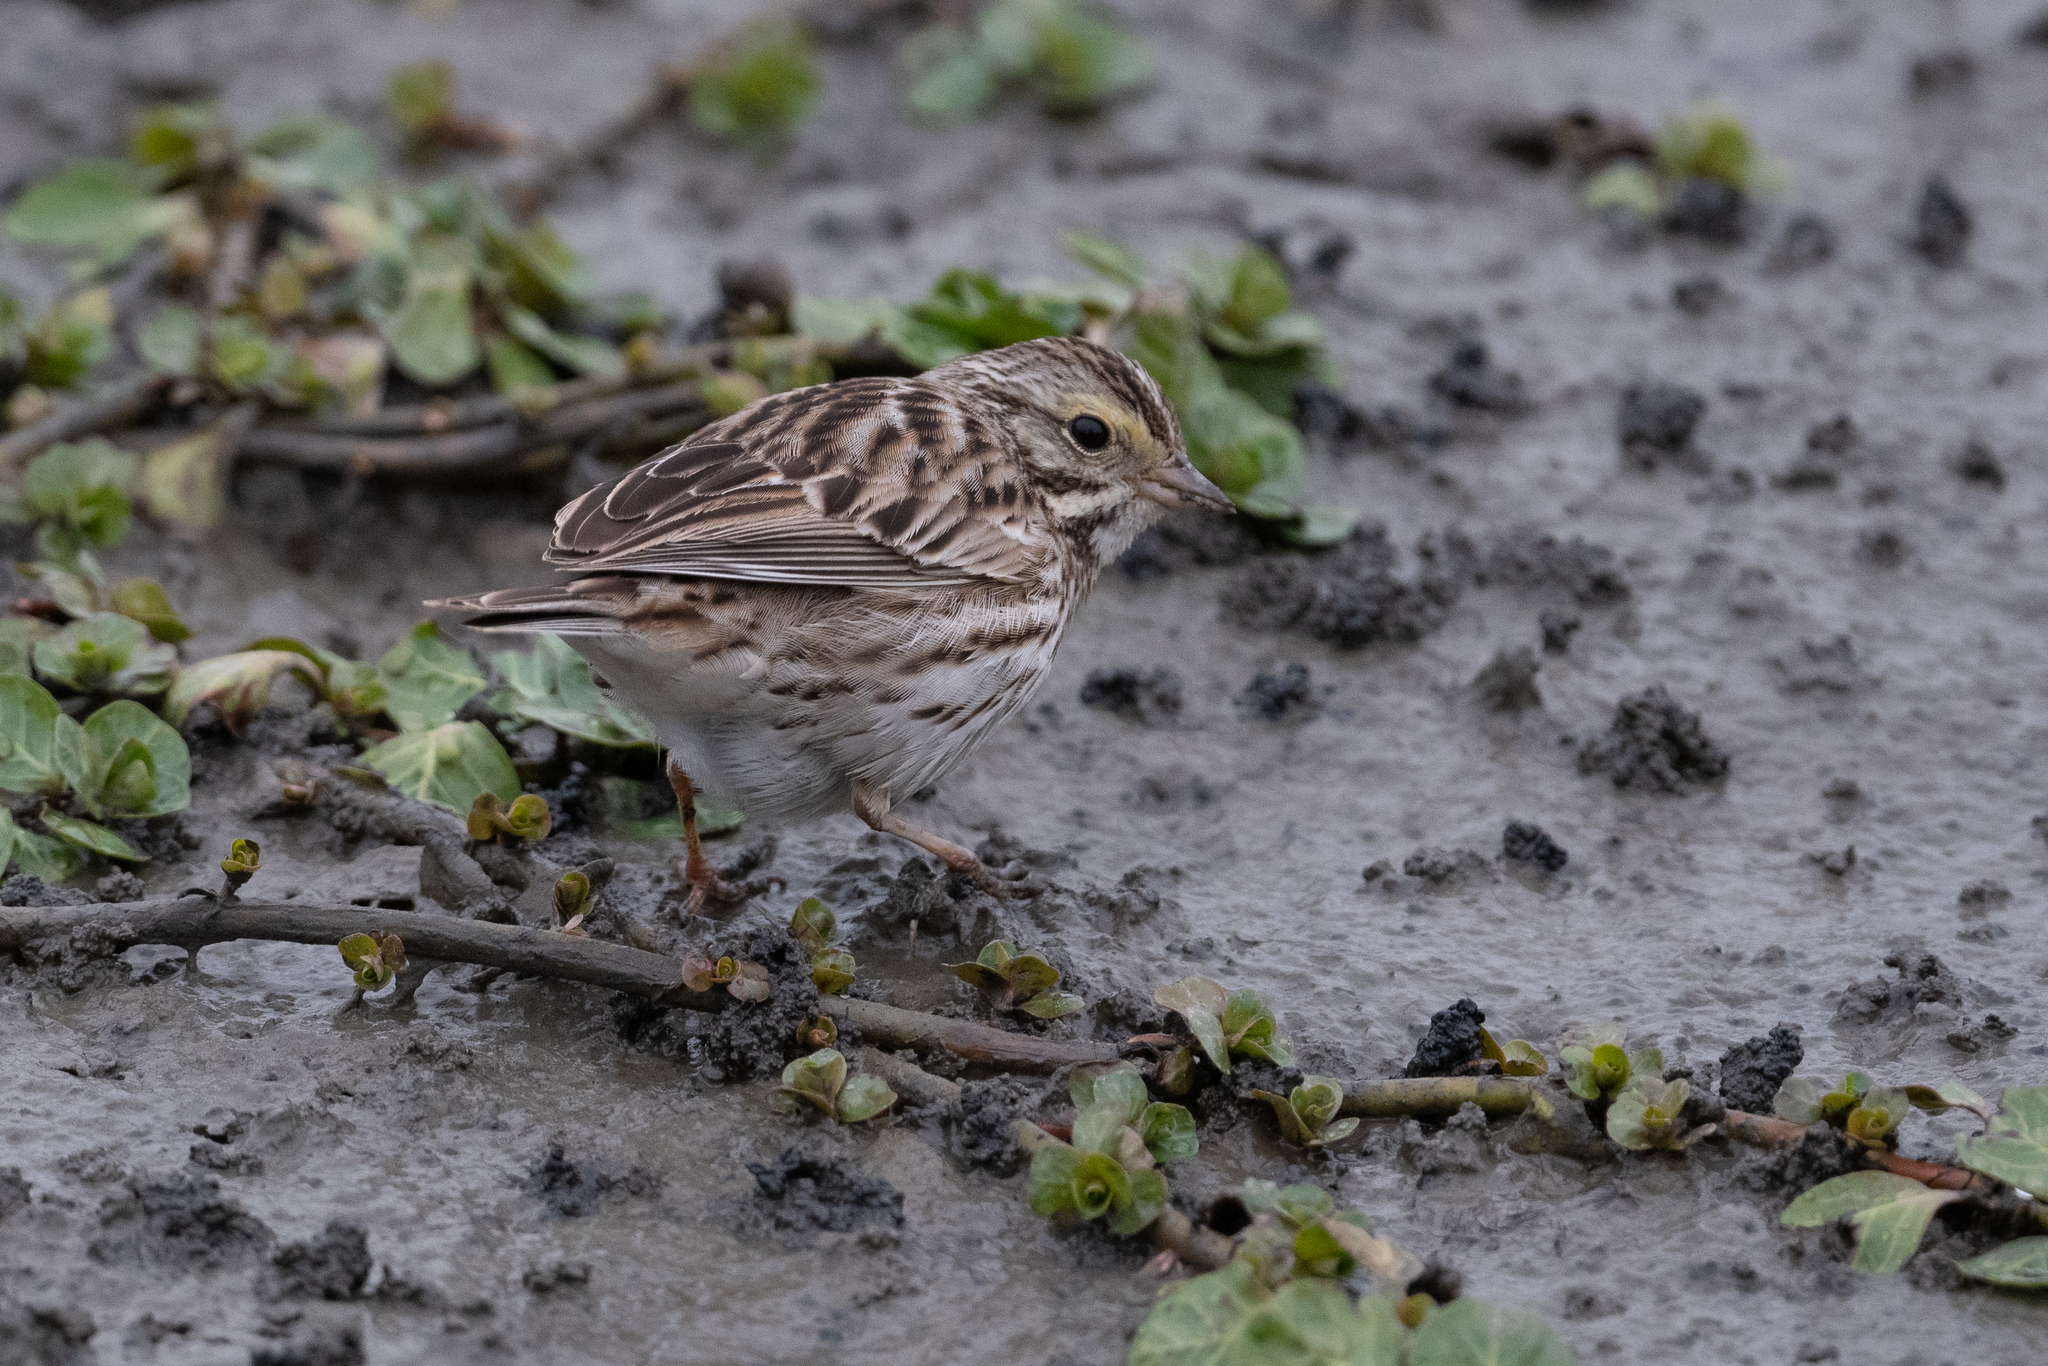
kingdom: Animalia
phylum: Chordata
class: Aves
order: Passeriformes
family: Passerellidae
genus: Passerculus
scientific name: Passerculus sandwichensis
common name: Savannah sparrow
